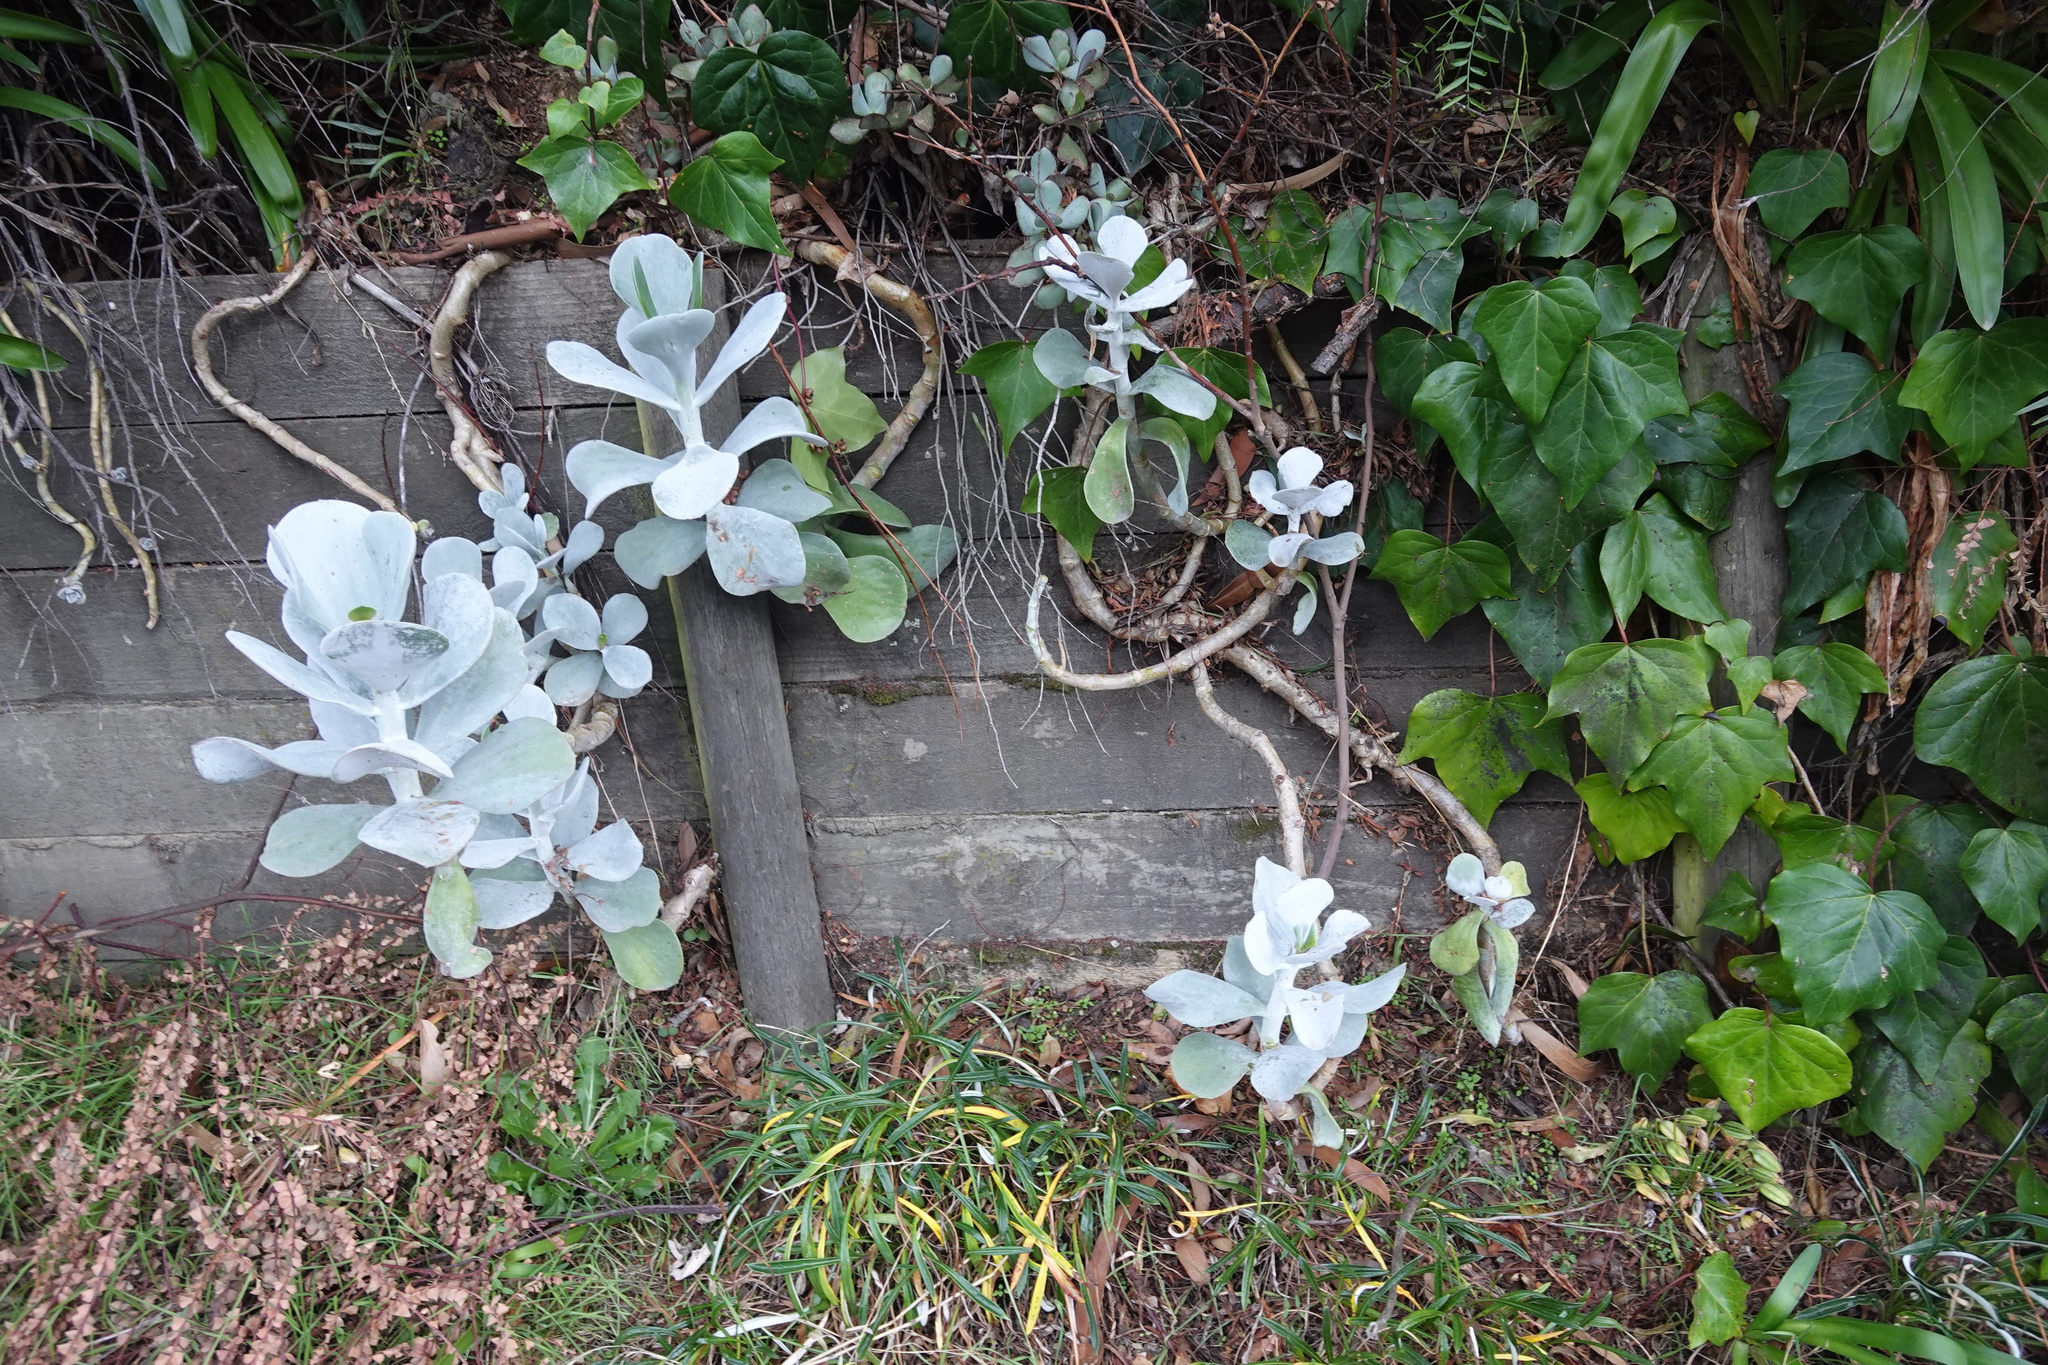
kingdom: Plantae
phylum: Tracheophyta
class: Magnoliopsida
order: Saxifragales
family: Crassulaceae
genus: Cotyledon
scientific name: Cotyledon orbiculata
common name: Pig's ear
